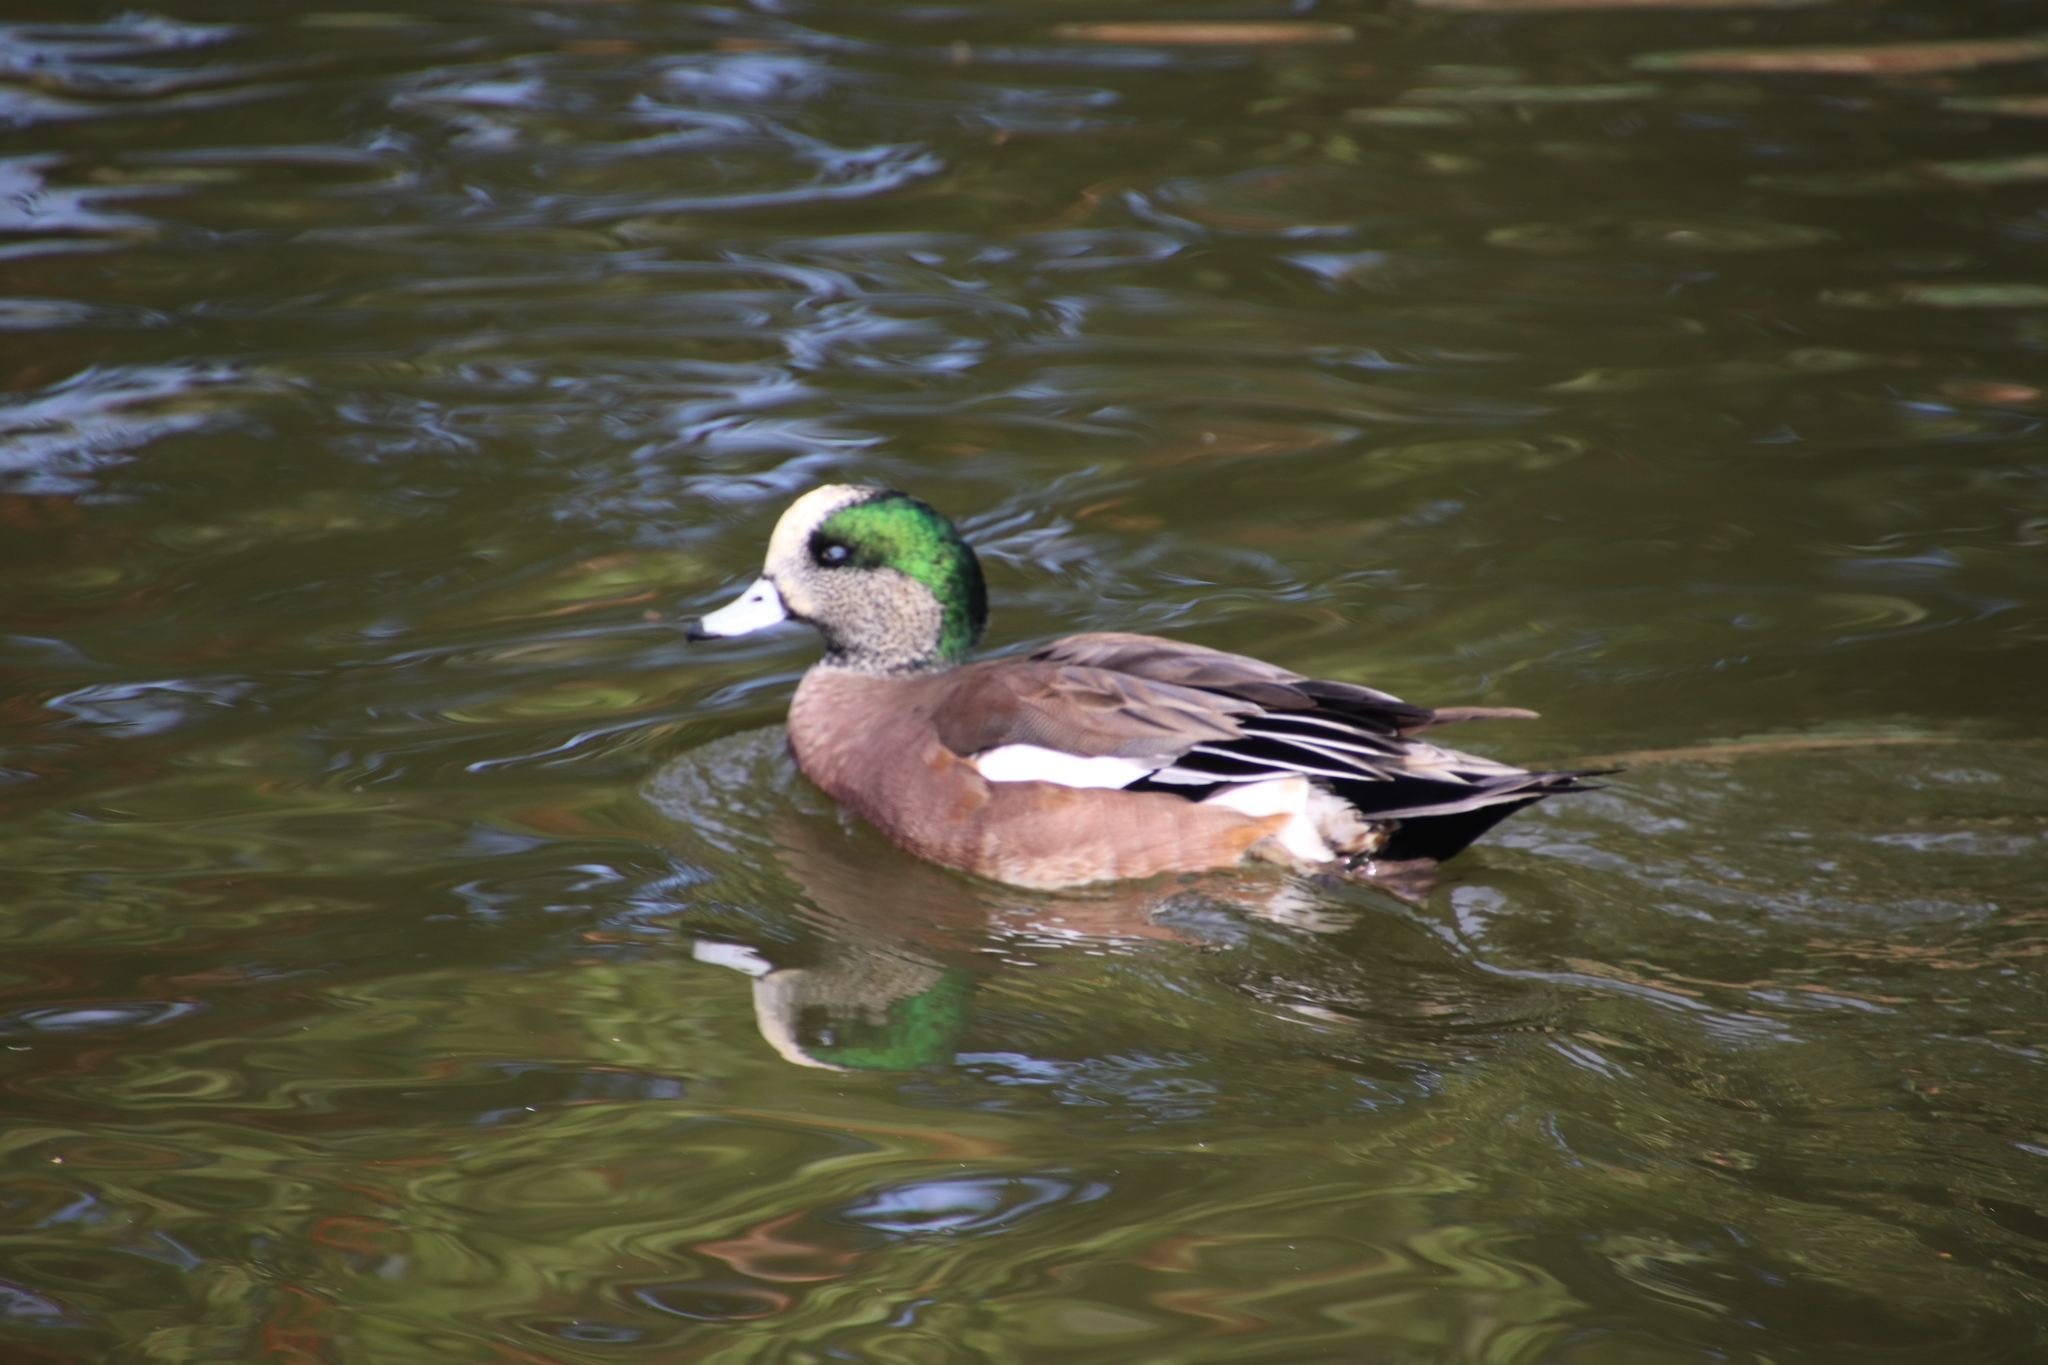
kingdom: Animalia
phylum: Chordata
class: Aves
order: Anseriformes
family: Anatidae
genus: Mareca
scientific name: Mareca americana
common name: American wigeon
